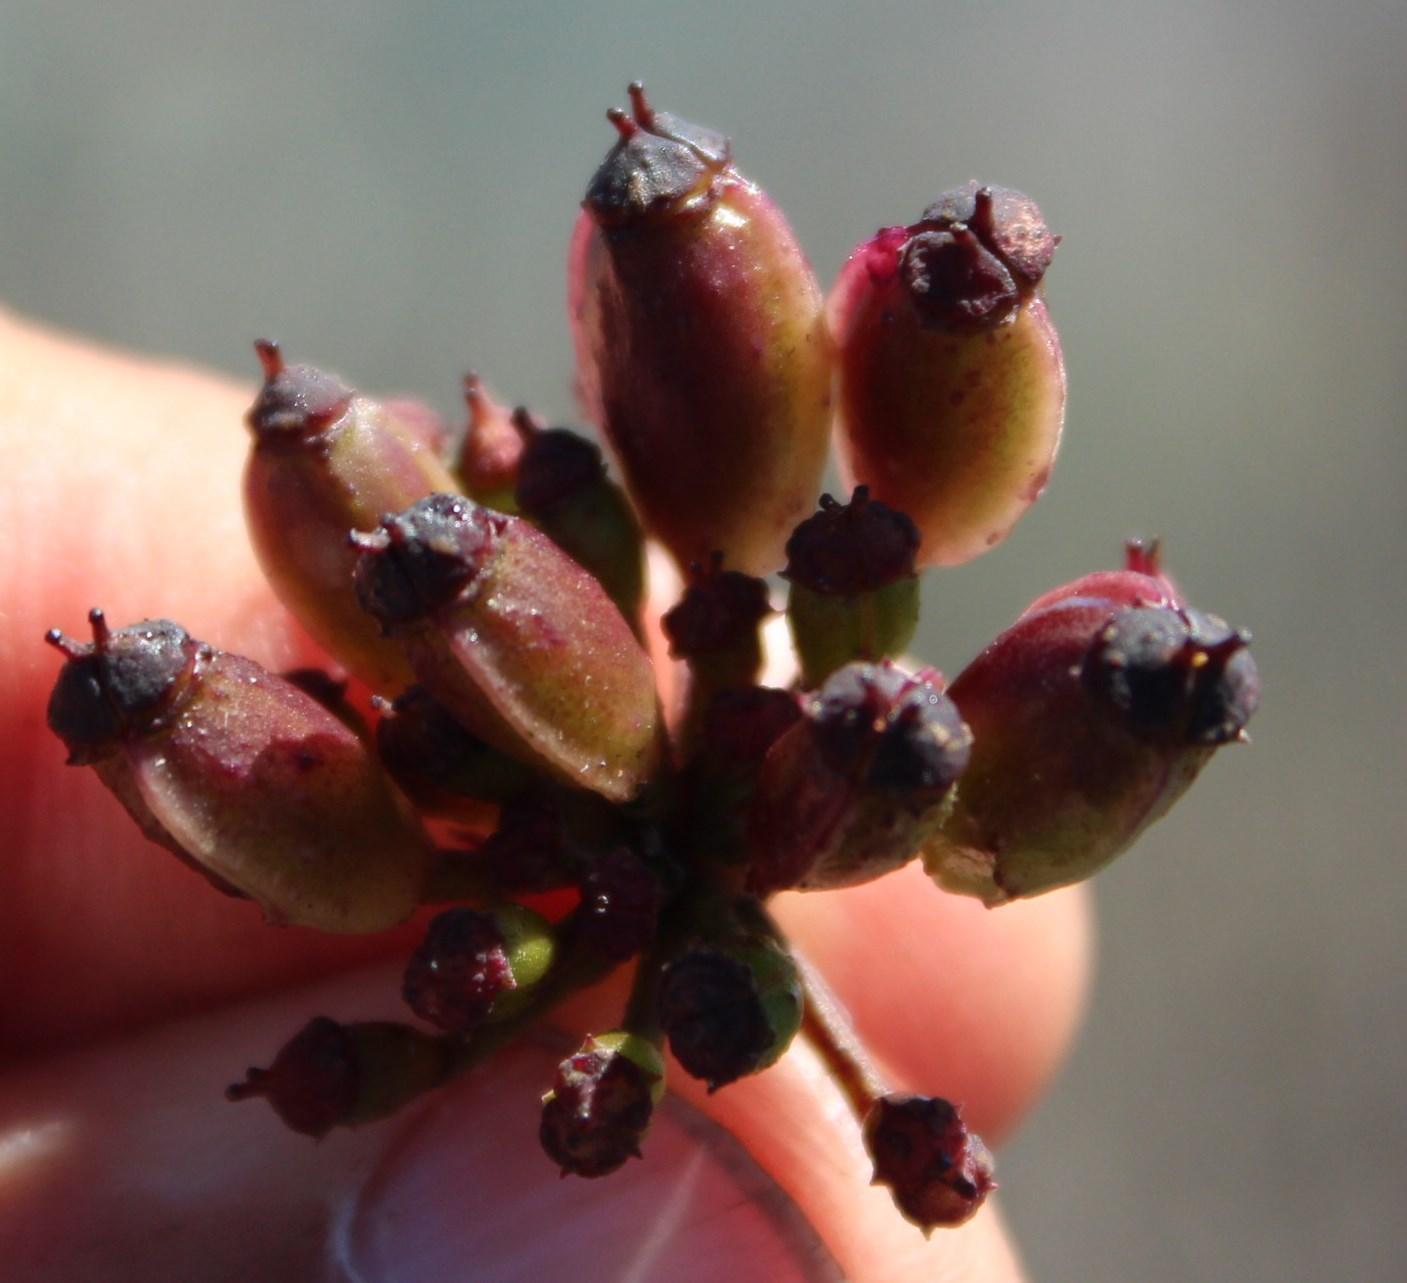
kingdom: Plantae
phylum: Tracheophyta
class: Magnoliopsida
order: Apiales
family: Apiaceae
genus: Nanobubon
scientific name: Nanobubon strictum
